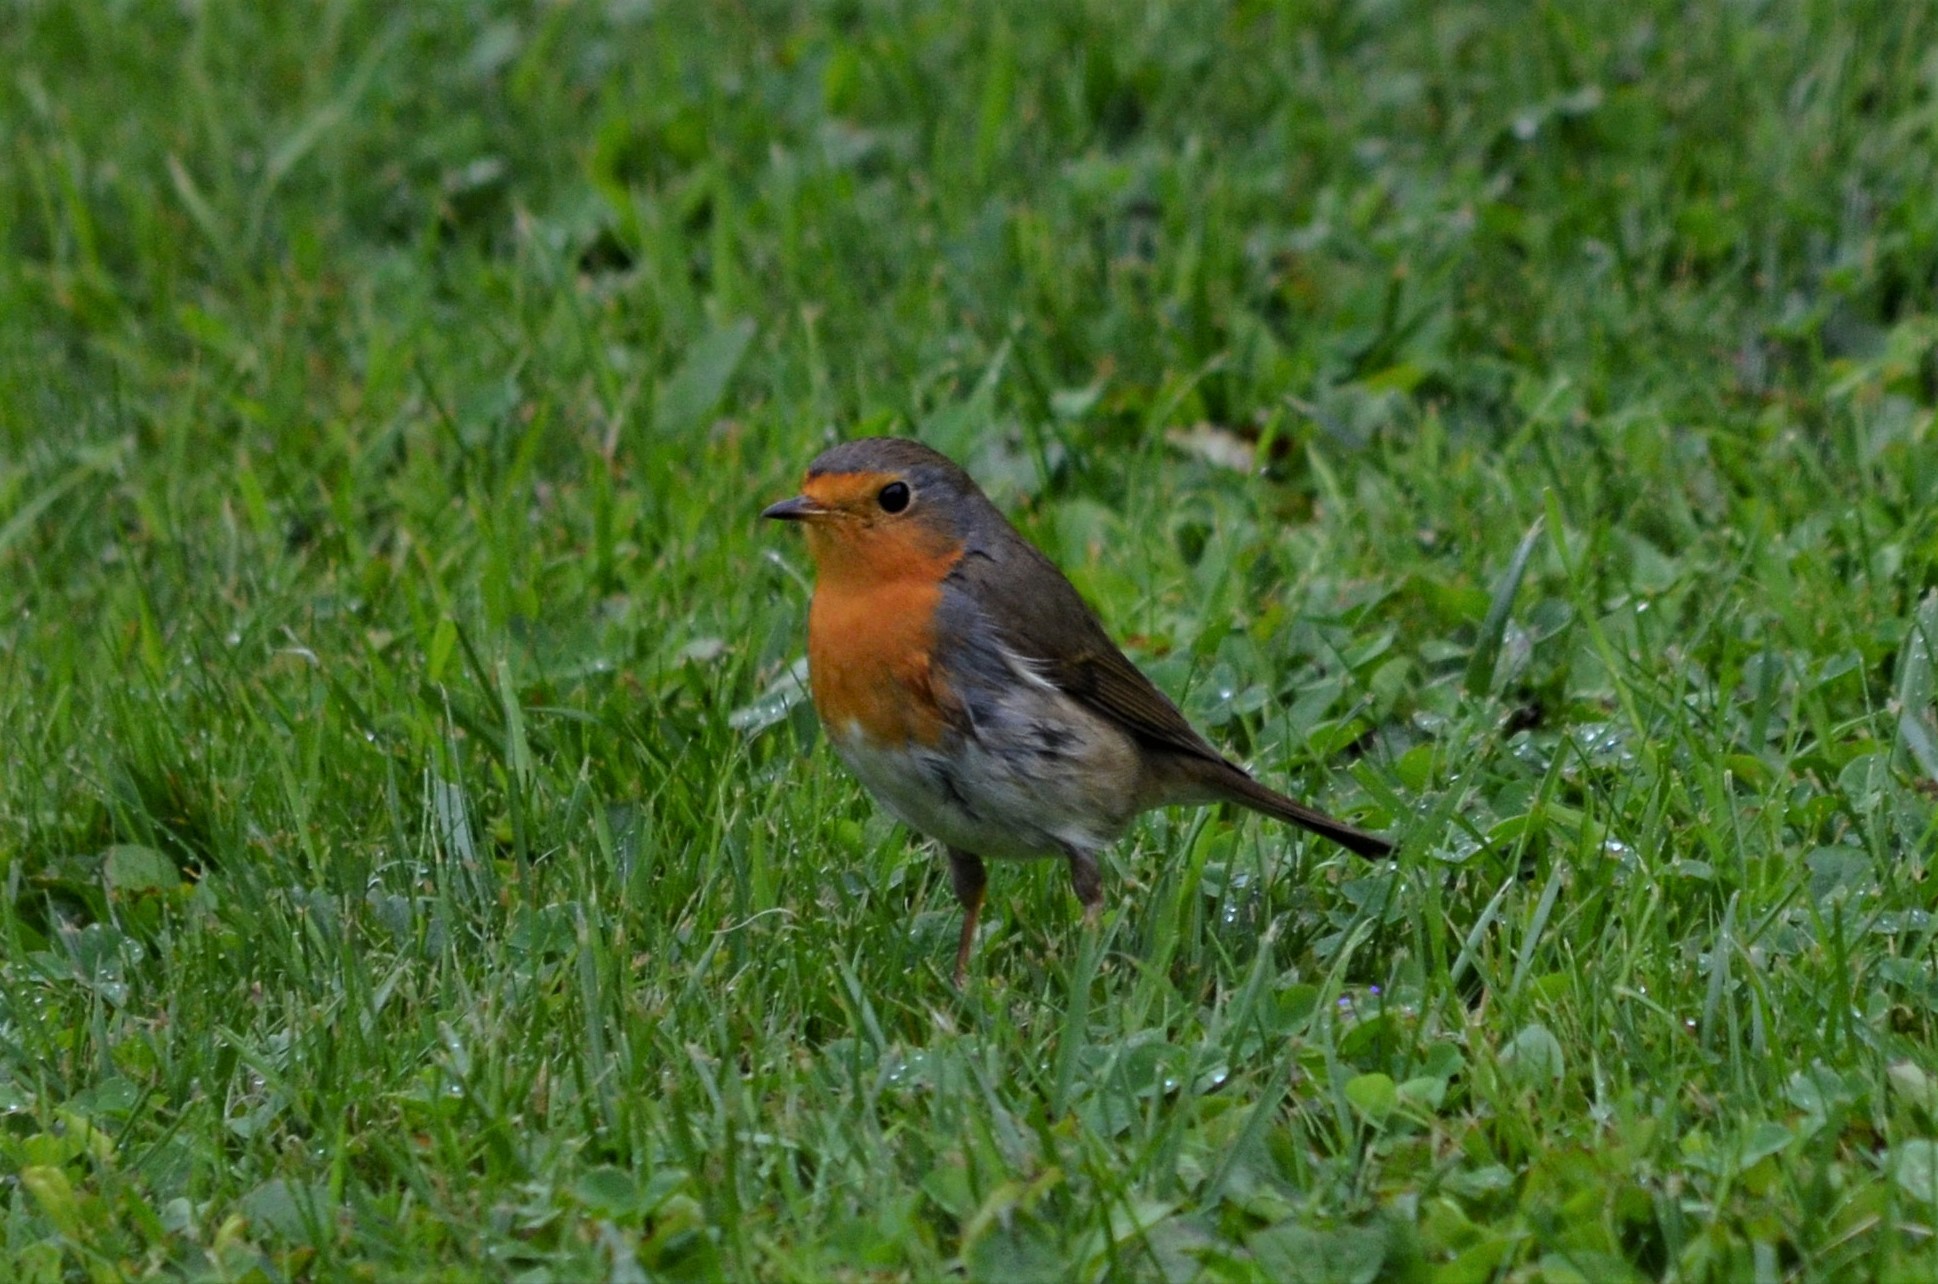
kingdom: Animalia
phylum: Chordata
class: Aves
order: Passeriformes
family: Muscicapidae
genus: Erithacus
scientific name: Erithacus rubecula
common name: European robin
